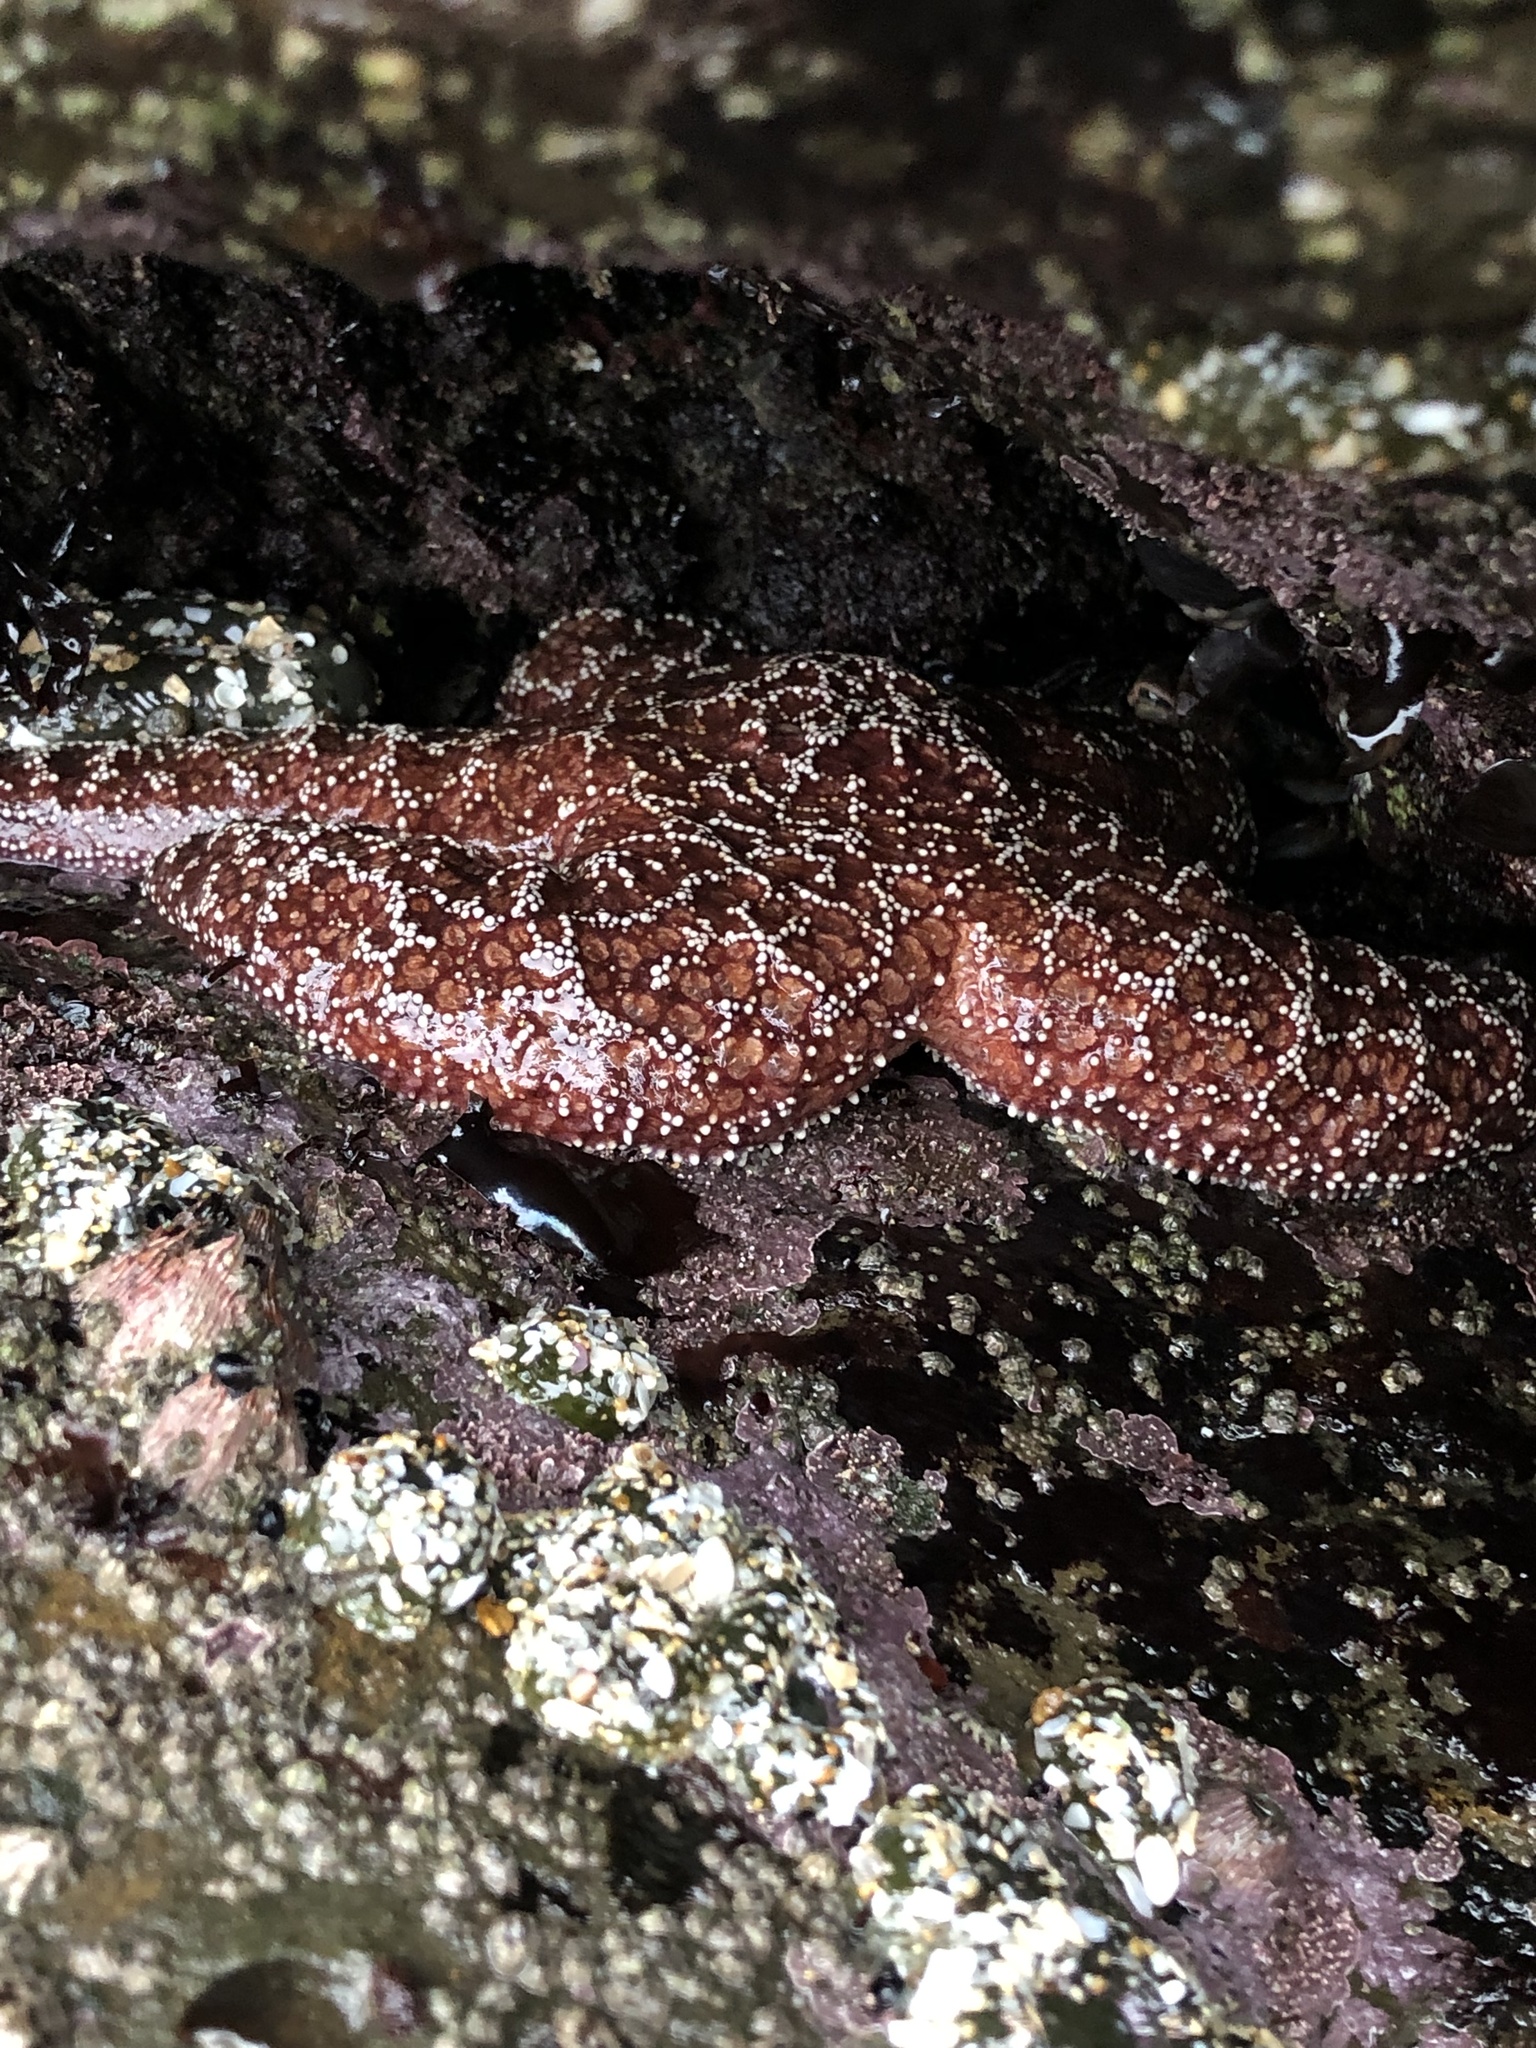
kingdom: Animalia
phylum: Echinodermata
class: Asteroidea
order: Forcipulatida
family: Asteriidae
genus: Pisaster
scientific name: Pisaster ochraceus
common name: Ochre stars
